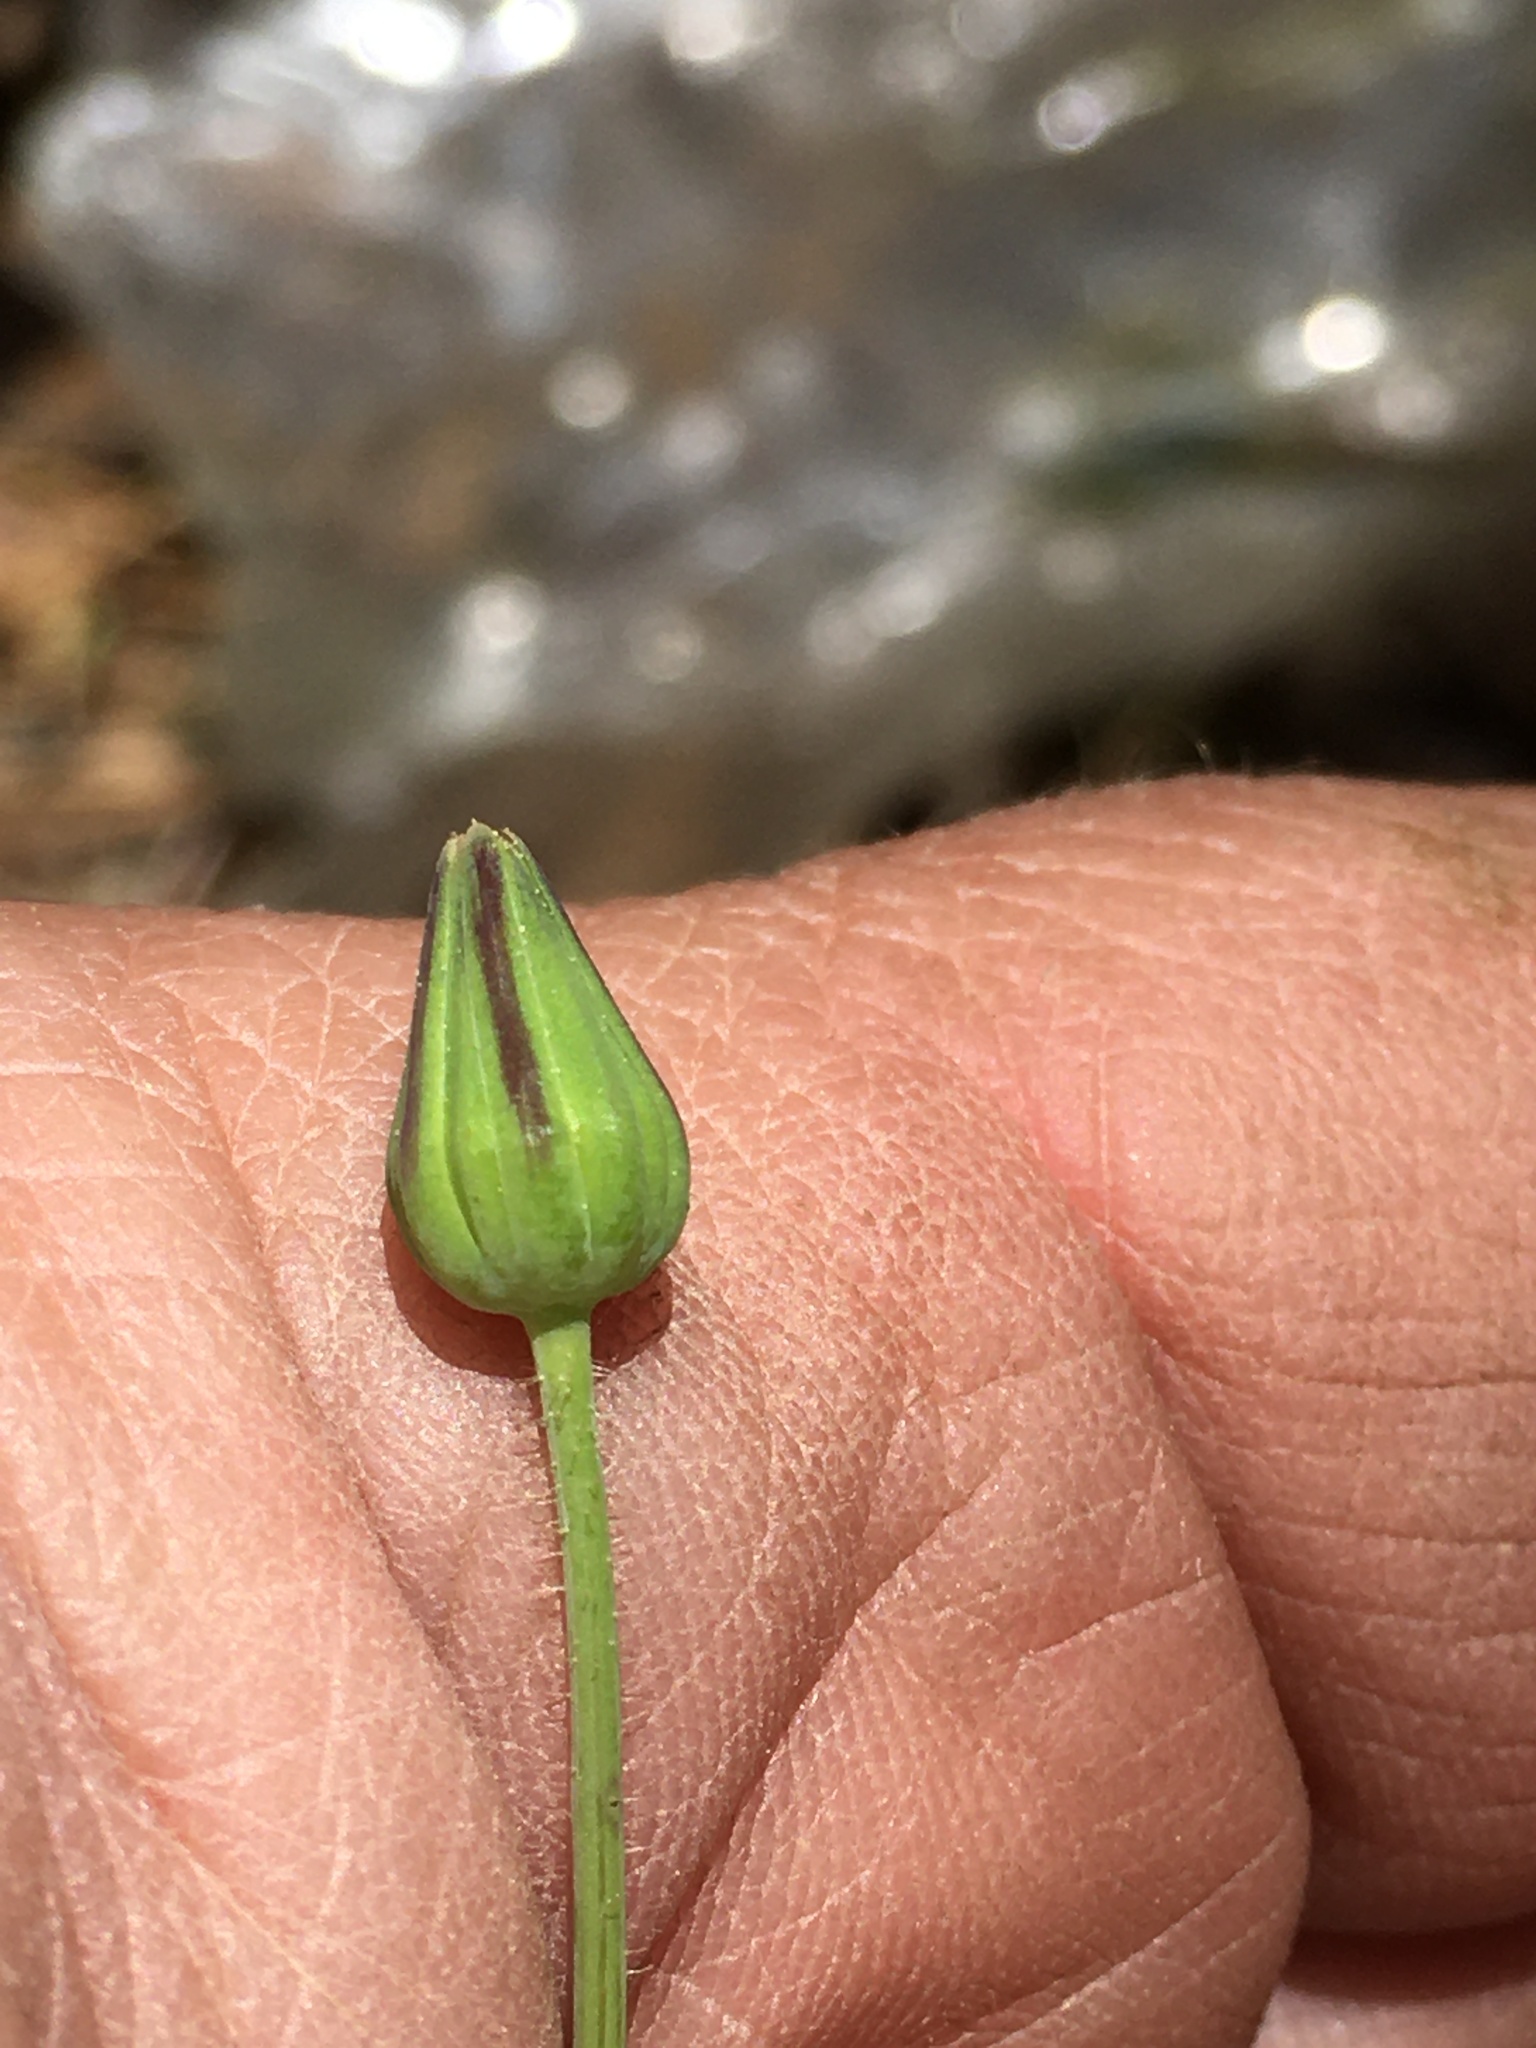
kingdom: Plantae
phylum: Tracheophyta
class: Magnoliopsida
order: Asterales
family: Asteraceae
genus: Krigia
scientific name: Krigia virginica
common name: Virginia dwarf-dandelion
